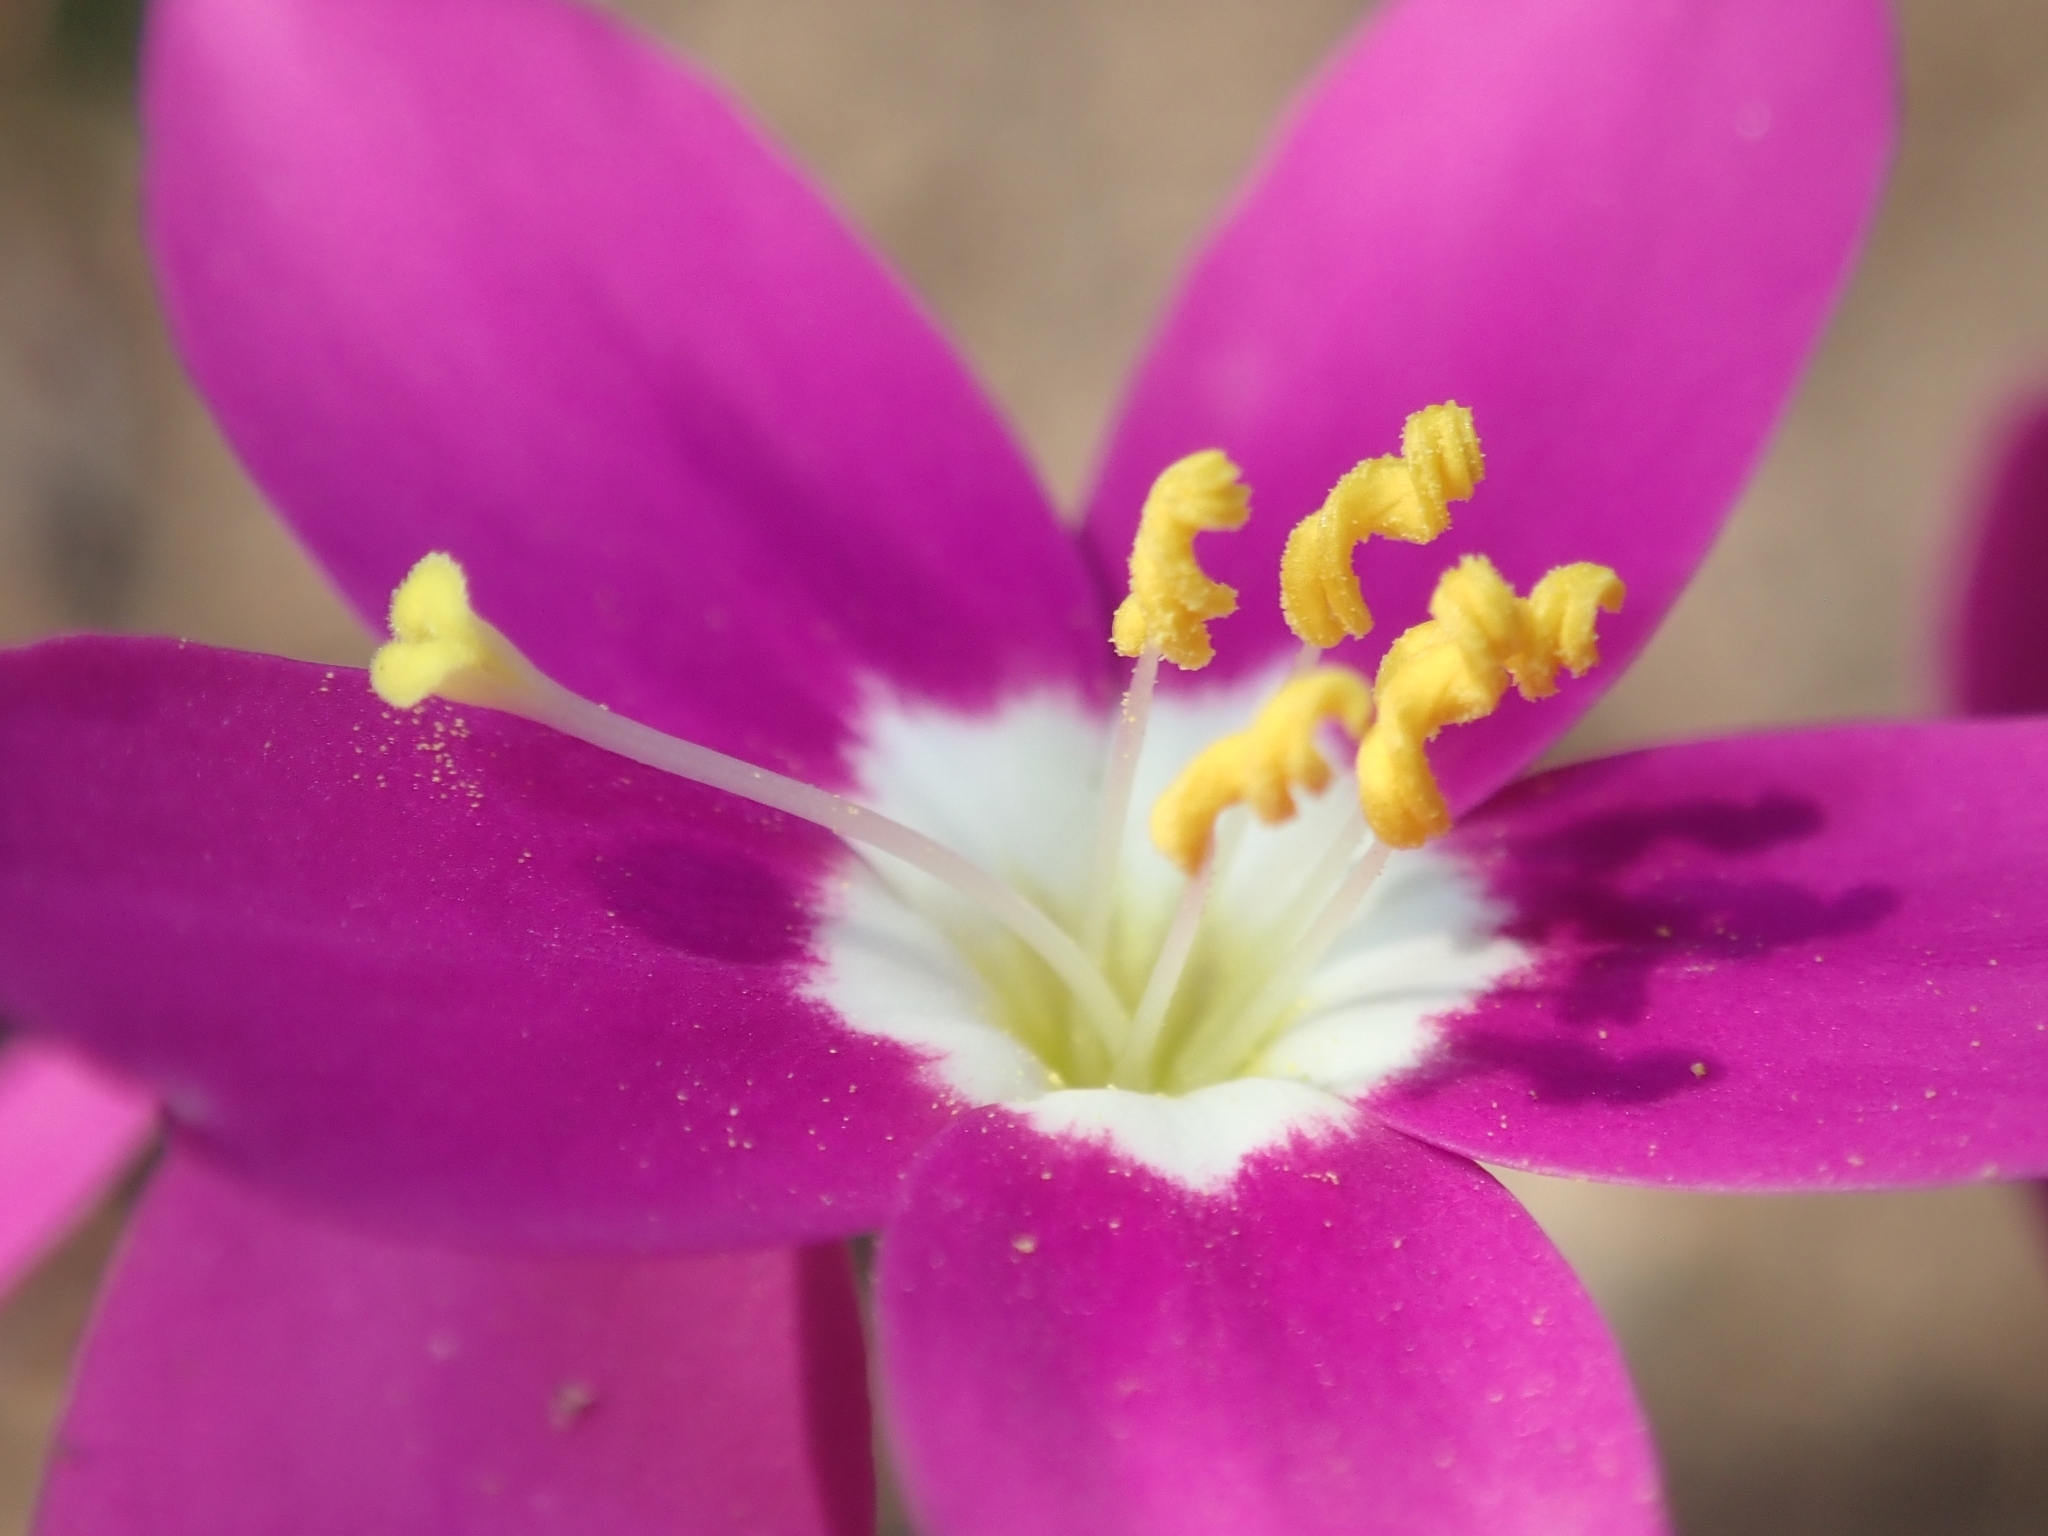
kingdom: Plantae
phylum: Tracheophyta
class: Magnoliopsida
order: Gentianales
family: Gentianaceae
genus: Zeltnera
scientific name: Zeltnera venusta
